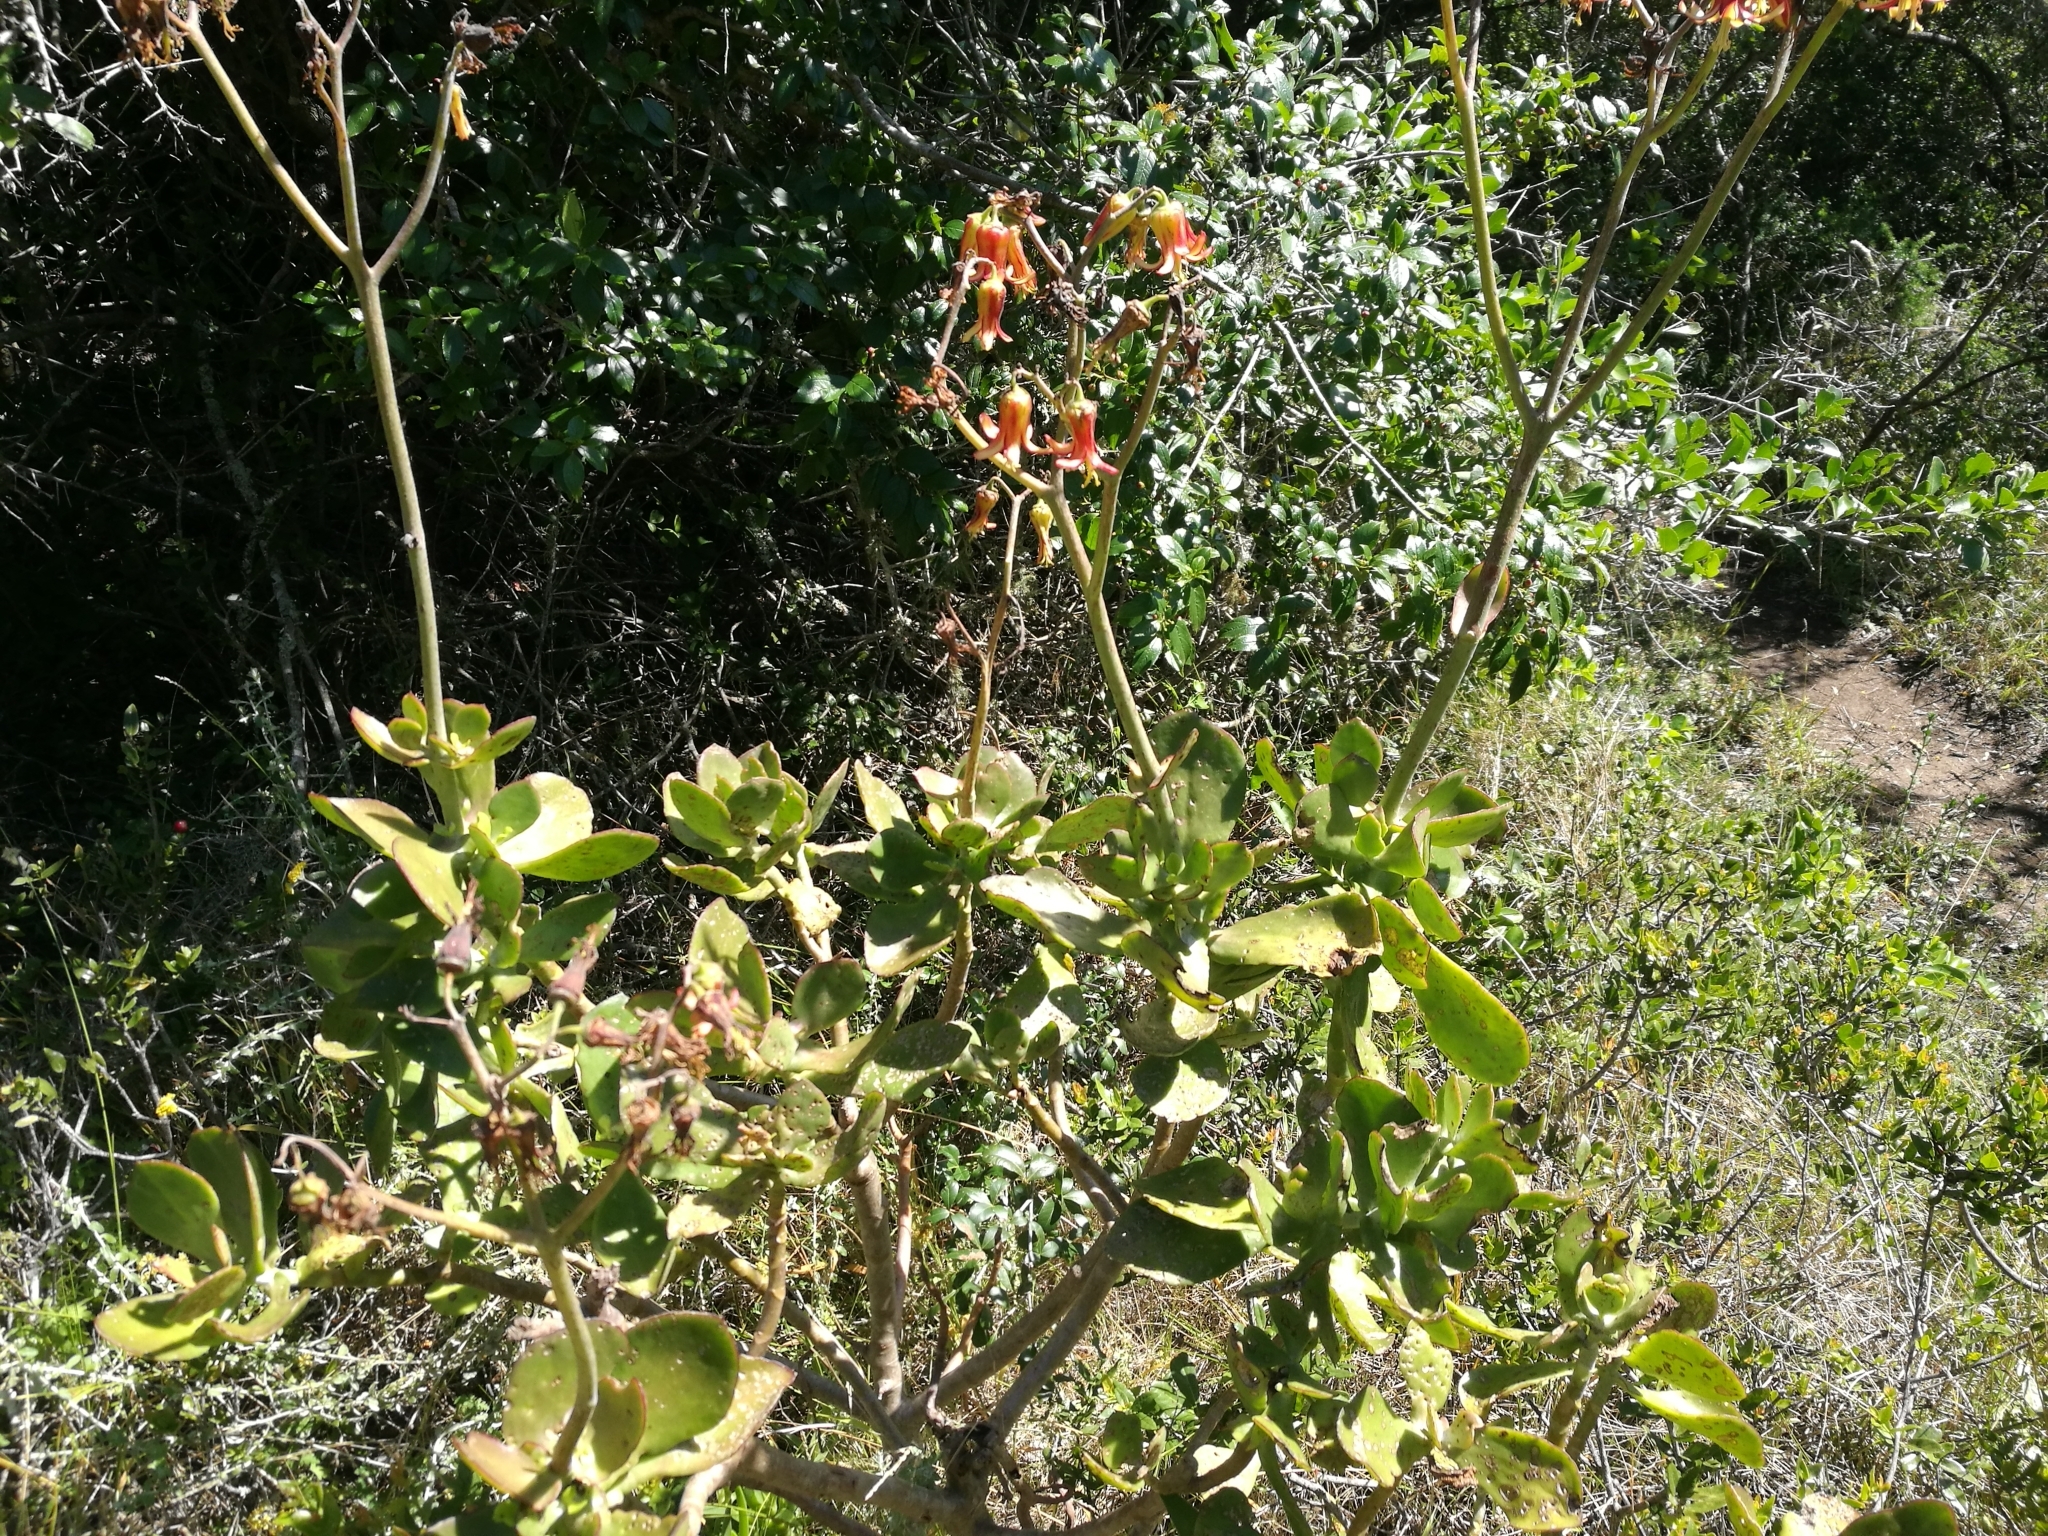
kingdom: Plantae
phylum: Tracheophyta
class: Magnoliopsida
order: Saxifragales
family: Crassulaceae
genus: Cotyledon
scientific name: Cotyledon velutina
